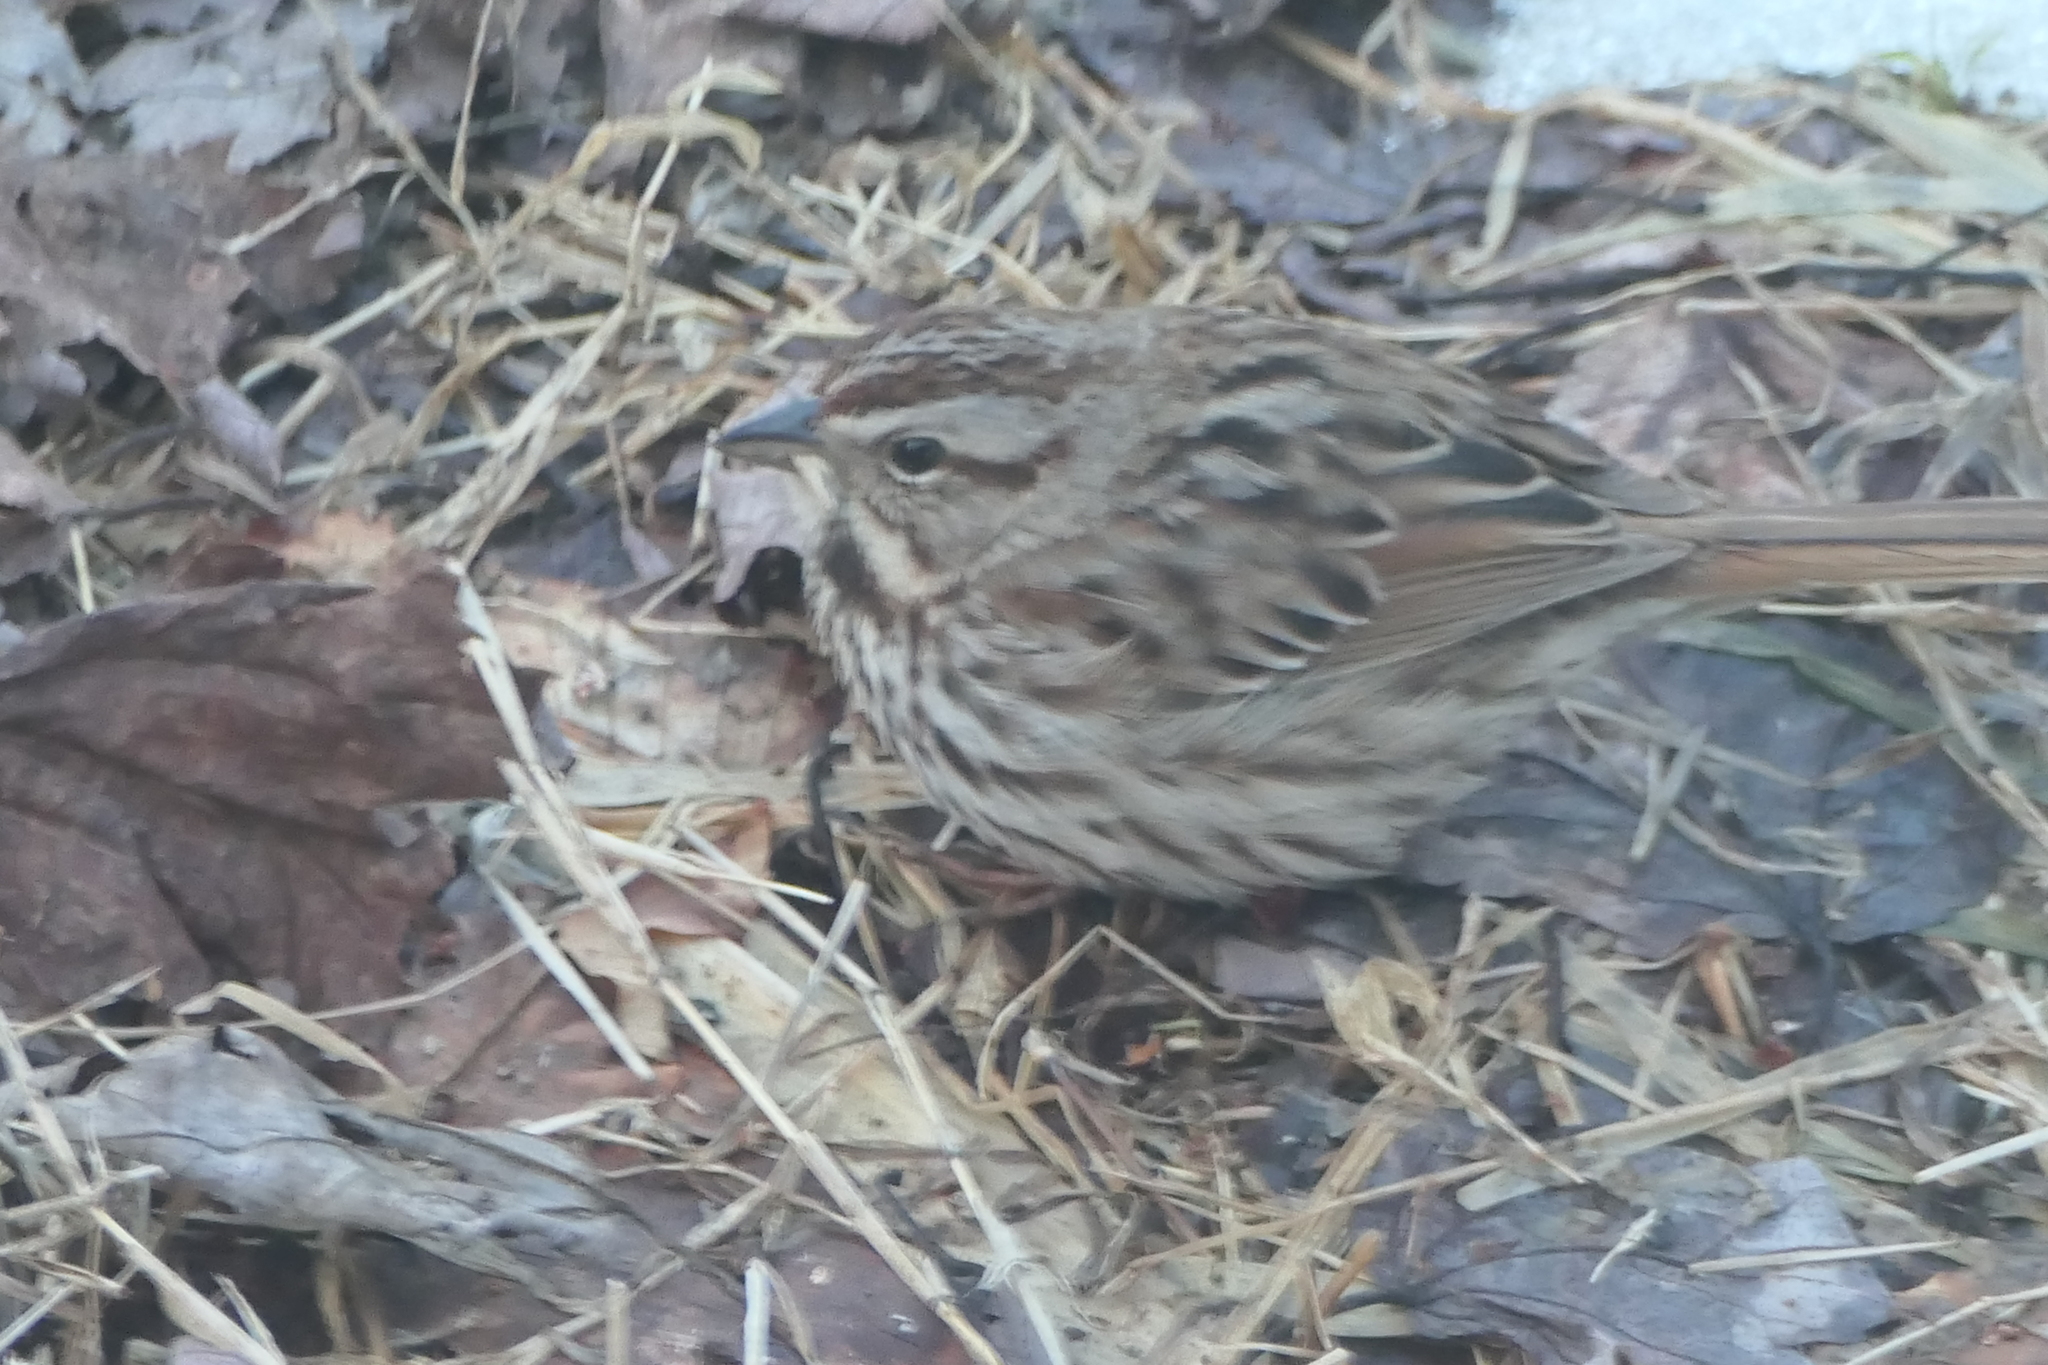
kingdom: Animalia
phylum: Chordata
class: Aves
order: Passeriformes
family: Passerellidae
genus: Melospiza
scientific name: Melospiza melodia
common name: Song sparrow
